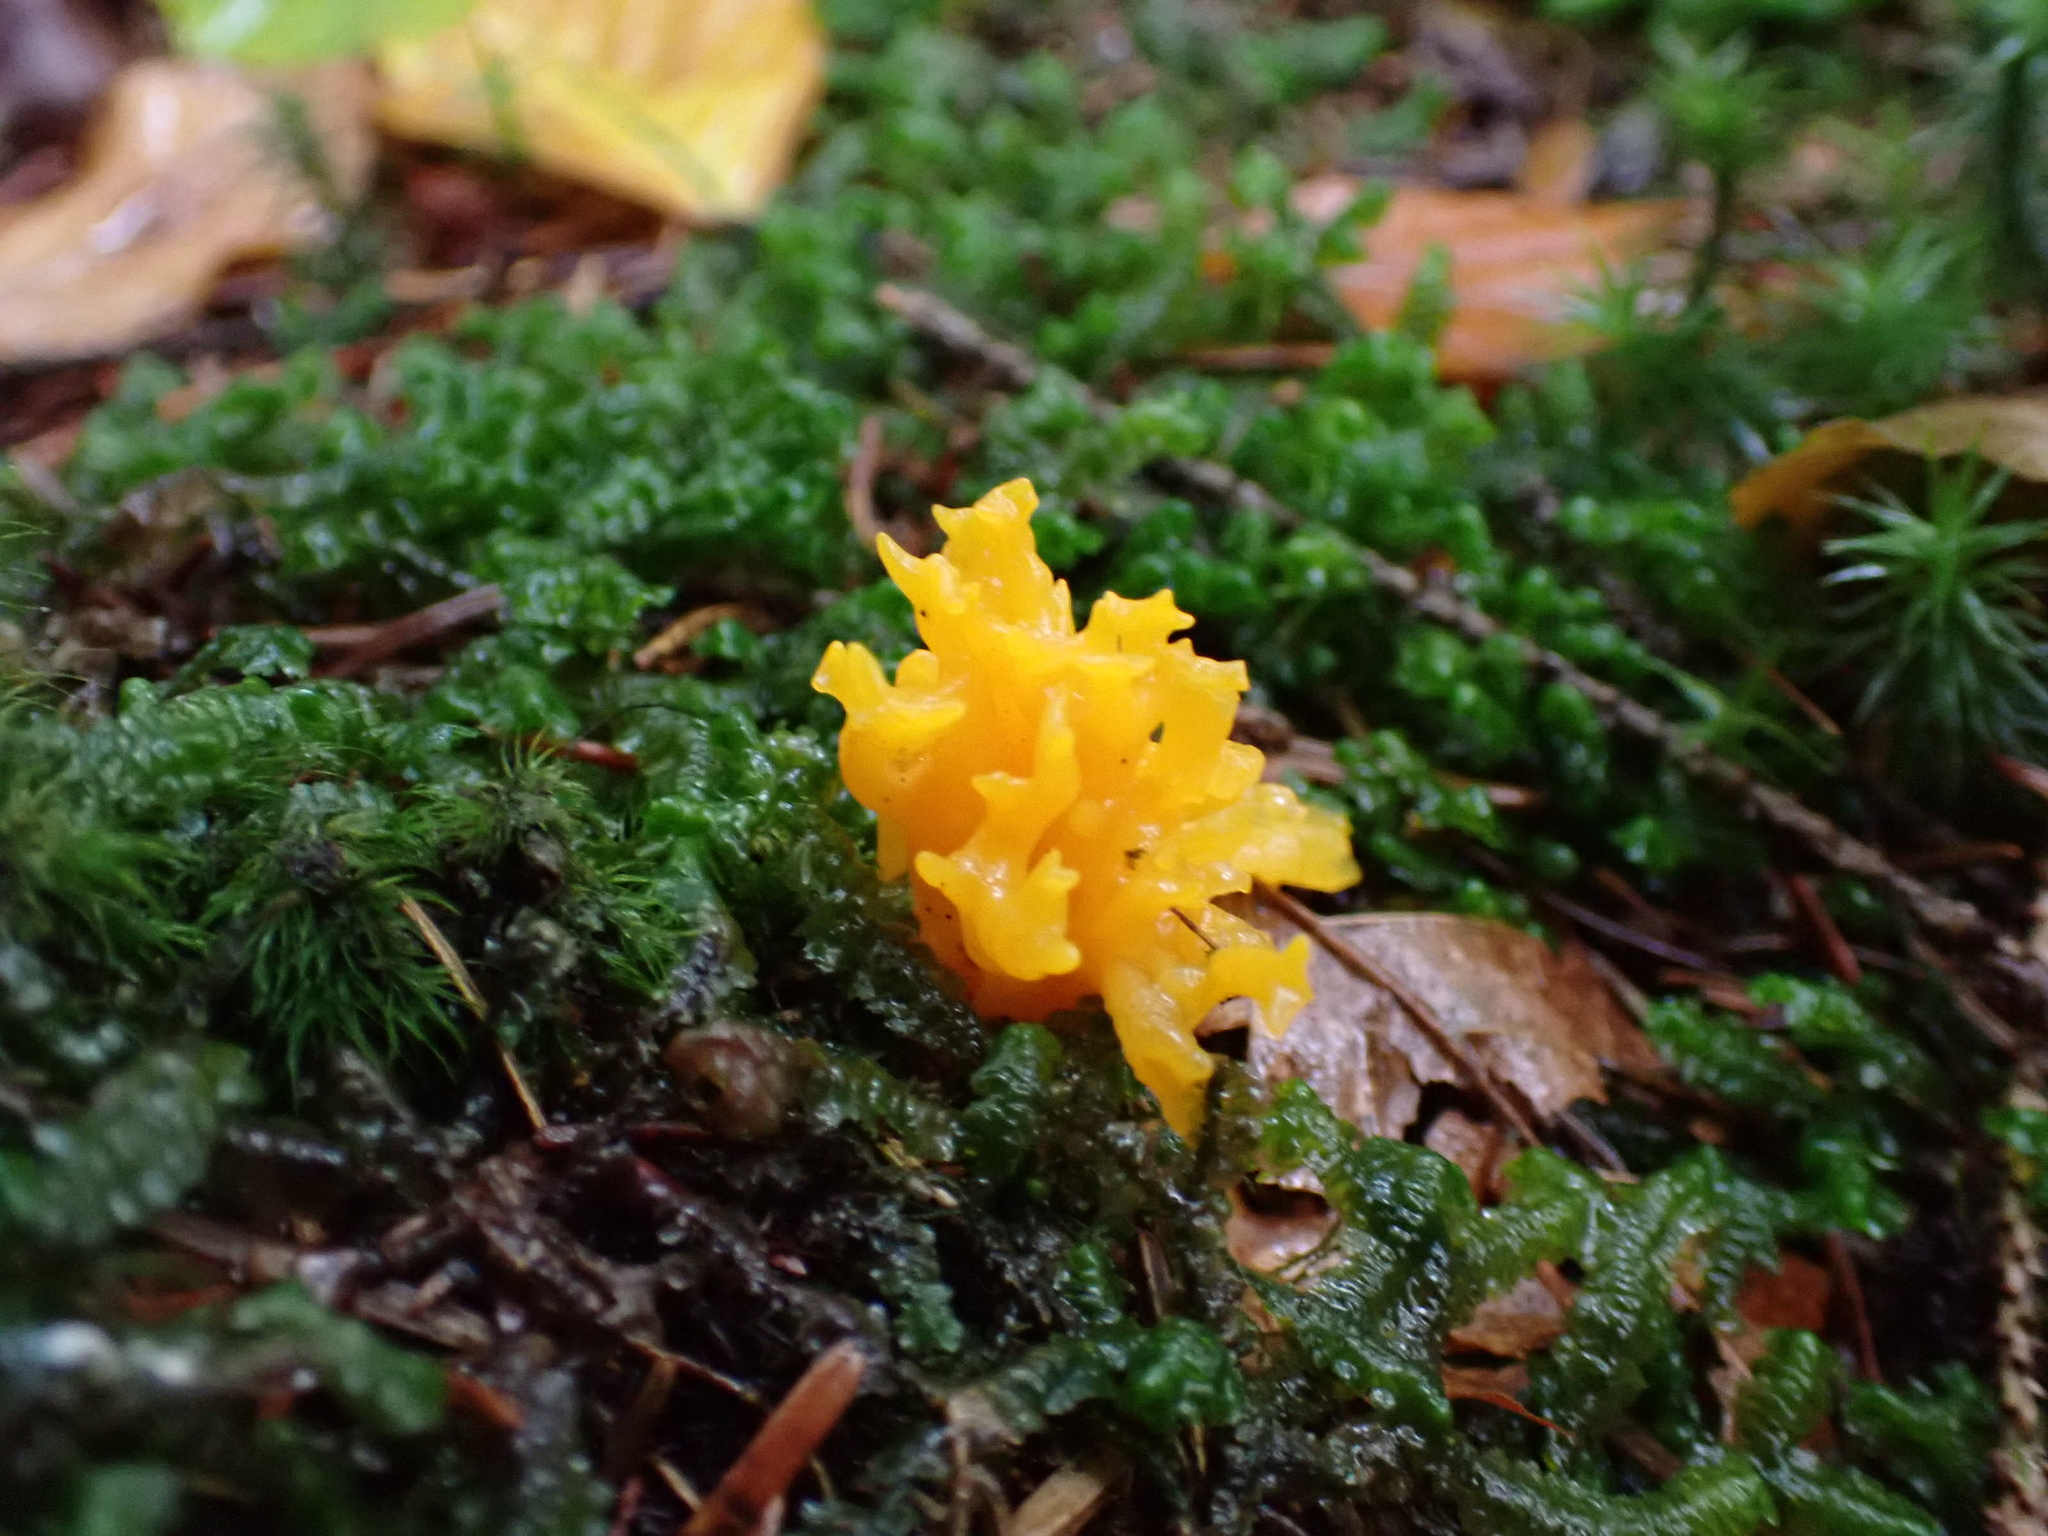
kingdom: Fungi
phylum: Basidiomycota
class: Dacrymycetes
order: Dacrymycetales
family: Dacrymycetaceae
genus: Calocera
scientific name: Calocera viscosa
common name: Yellow stagshorn
